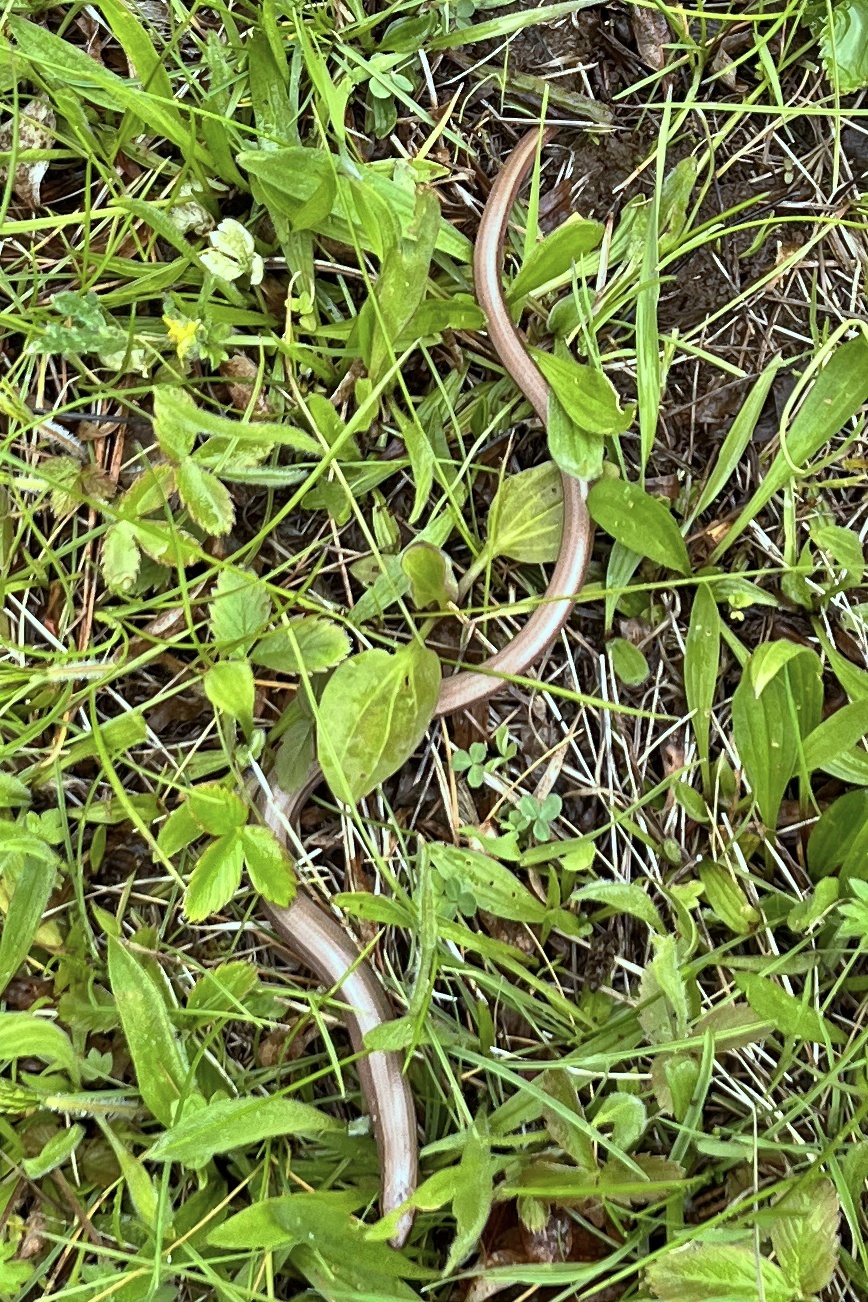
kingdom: Animalia
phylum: Chordata
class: Squamata
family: Anguidae
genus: Anguis
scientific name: Anguis fragilis
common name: Slow worm
